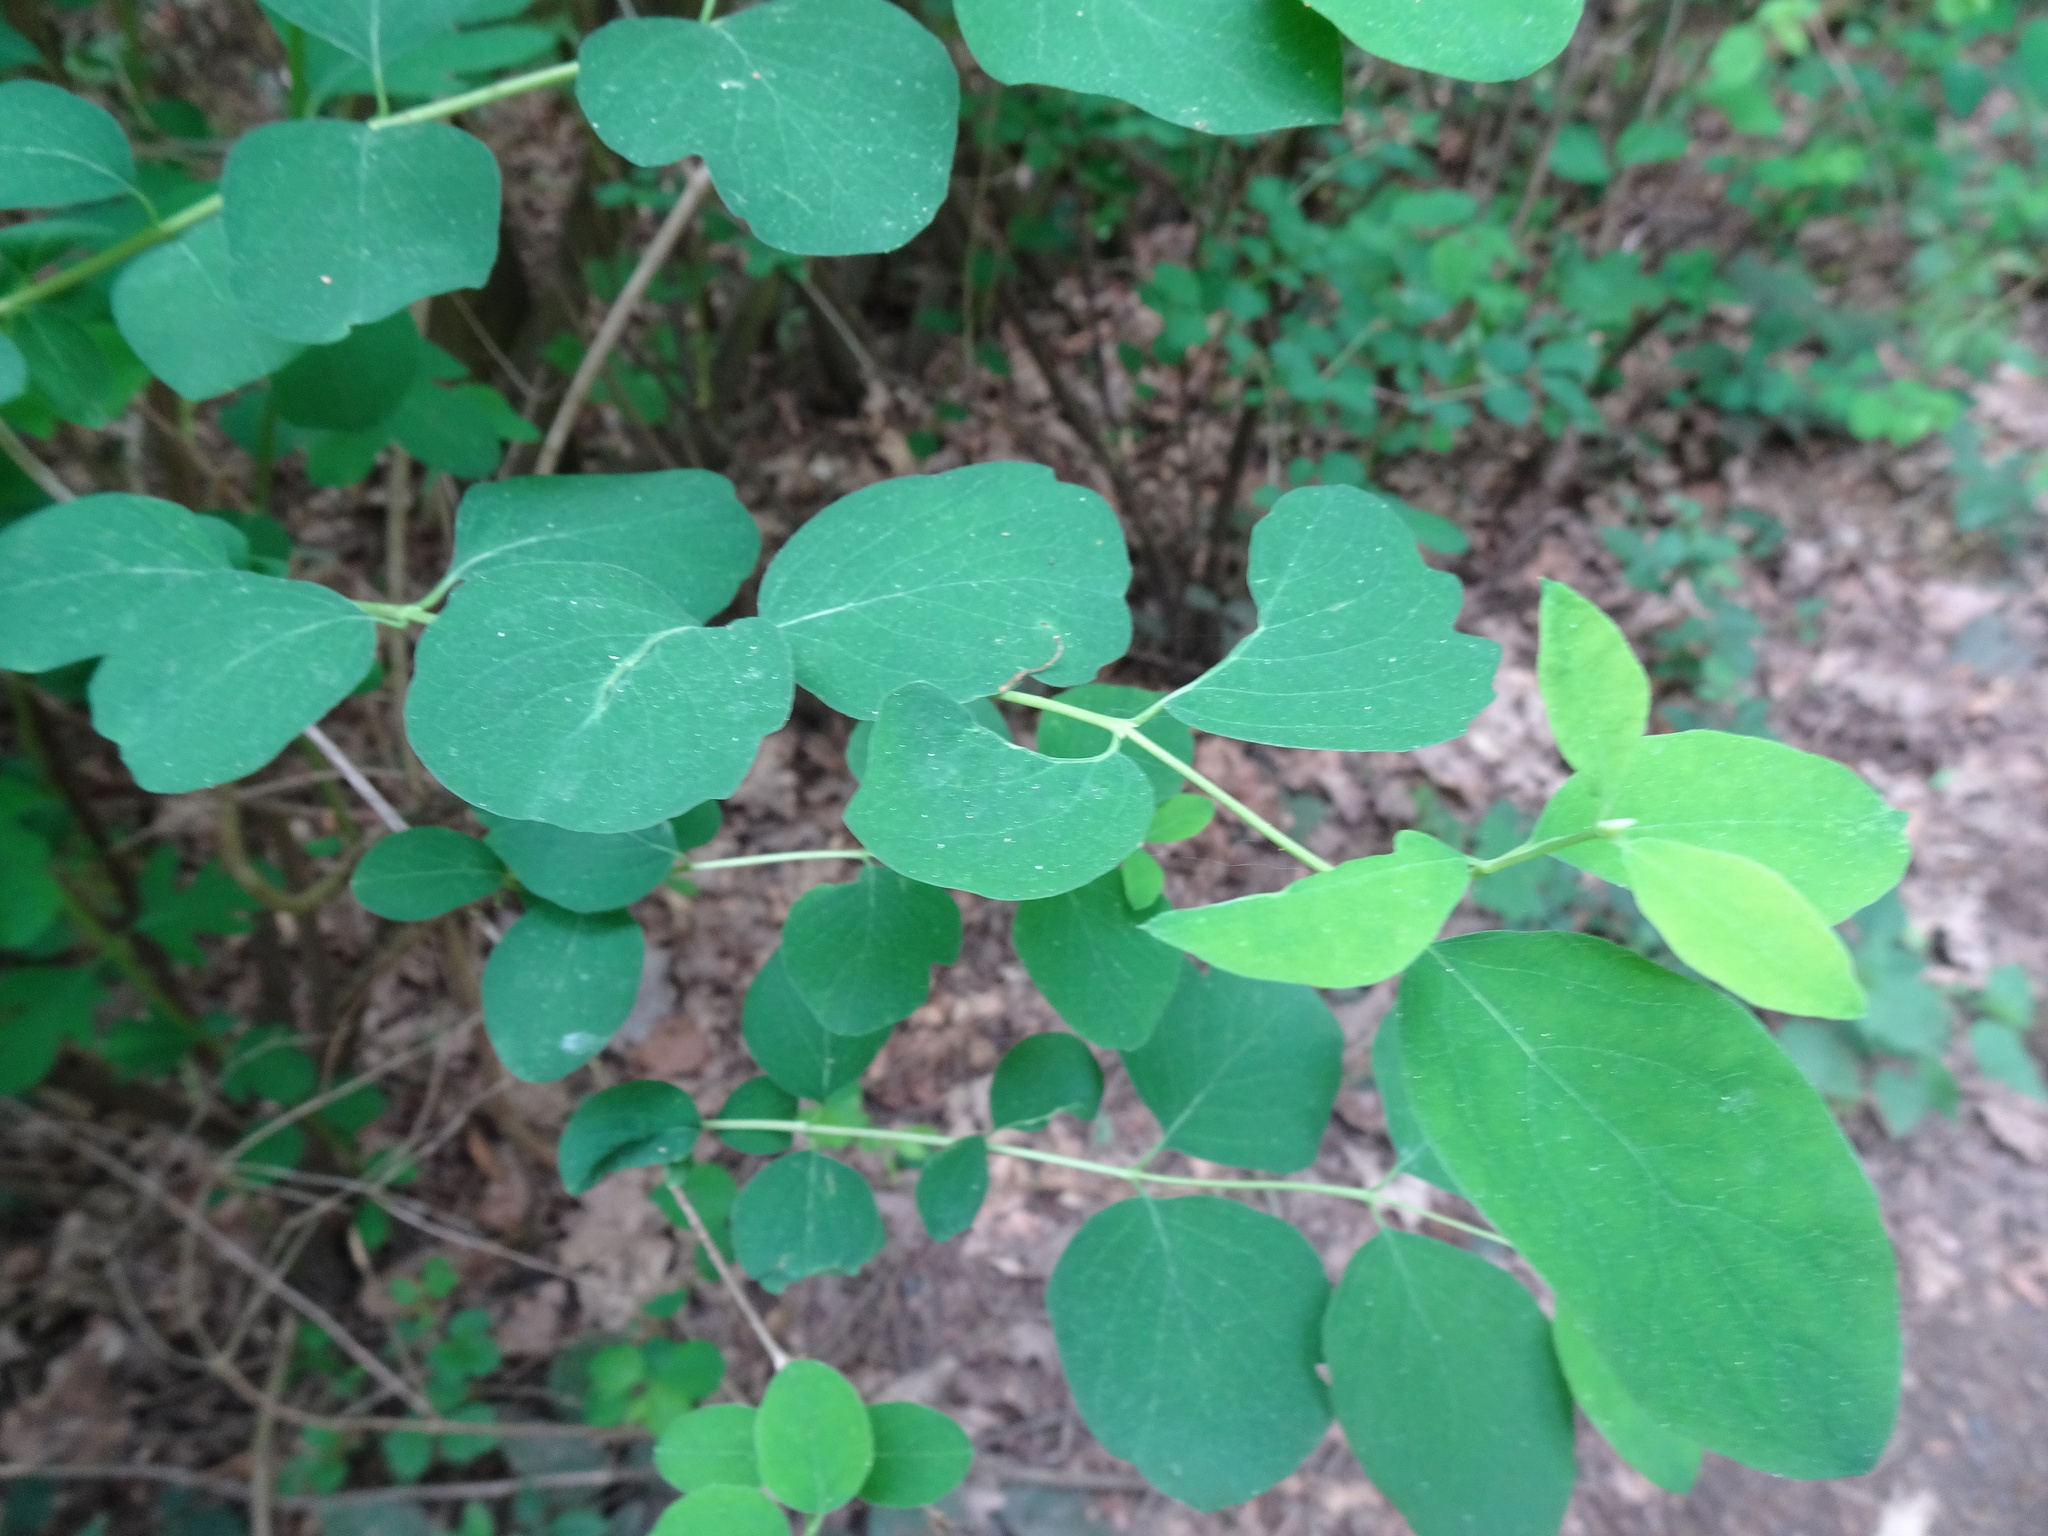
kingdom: Plantae
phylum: Tracheophyta
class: Magnoliopsida
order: Dipsacales
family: Caprifoliaceae
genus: Symphoricarpos
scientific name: Symphoricarpos albus
